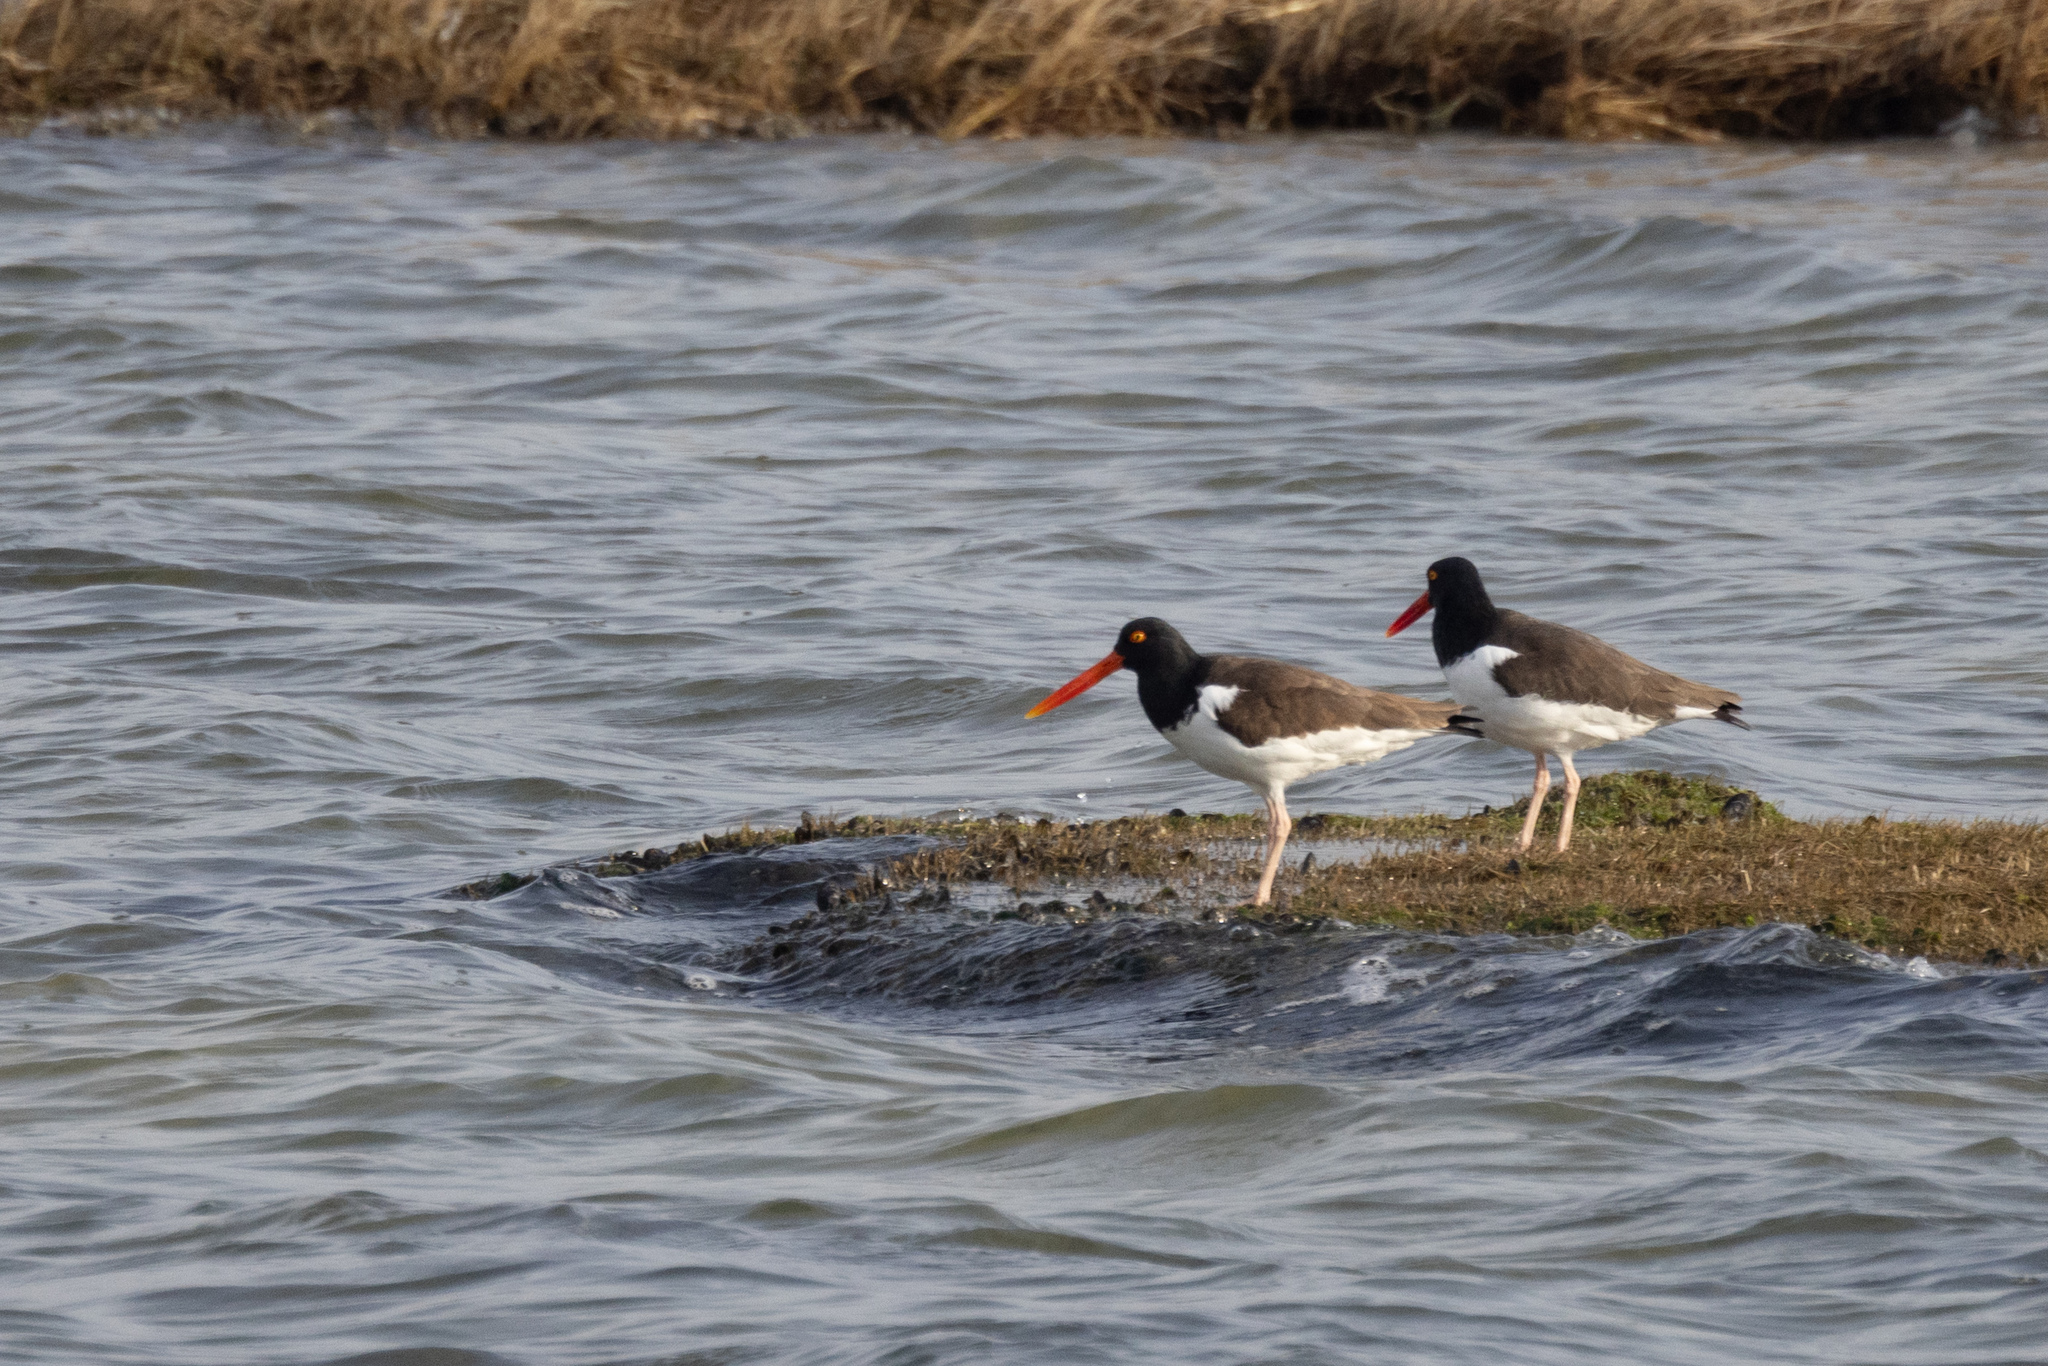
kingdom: Animalia
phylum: Chordata
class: Aves
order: Charadriiformes
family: Haematopodidae
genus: Haematopus
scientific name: Haematopus palliatus
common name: American oystercatcher
